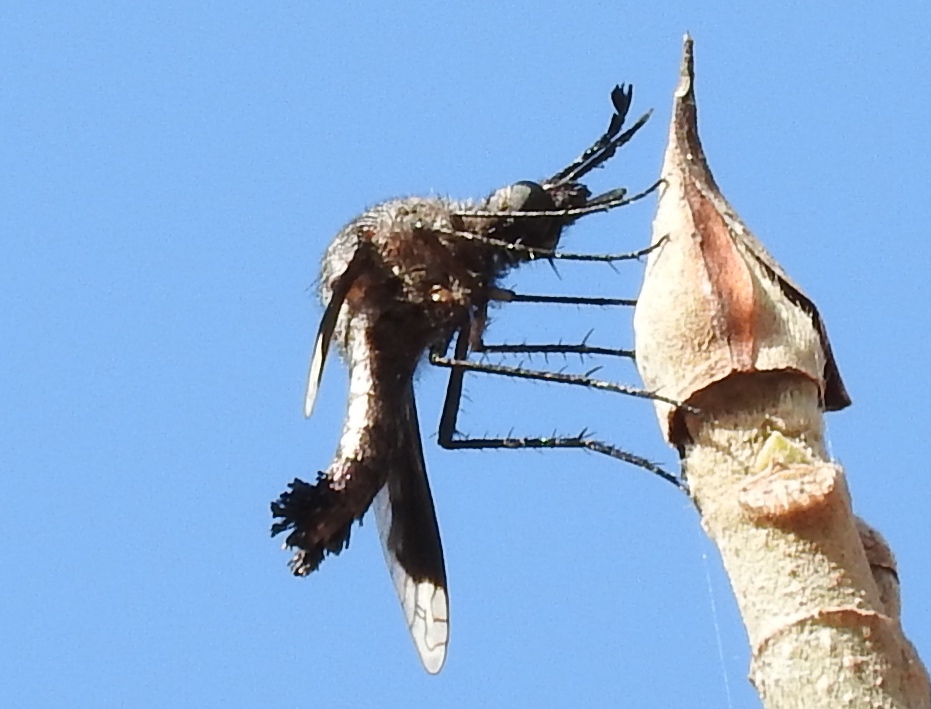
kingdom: Animalia
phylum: Arthropoda
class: Insecta
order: Diptera
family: Bombyliidae
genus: Lepidophora
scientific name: Lepidophora vetusta
